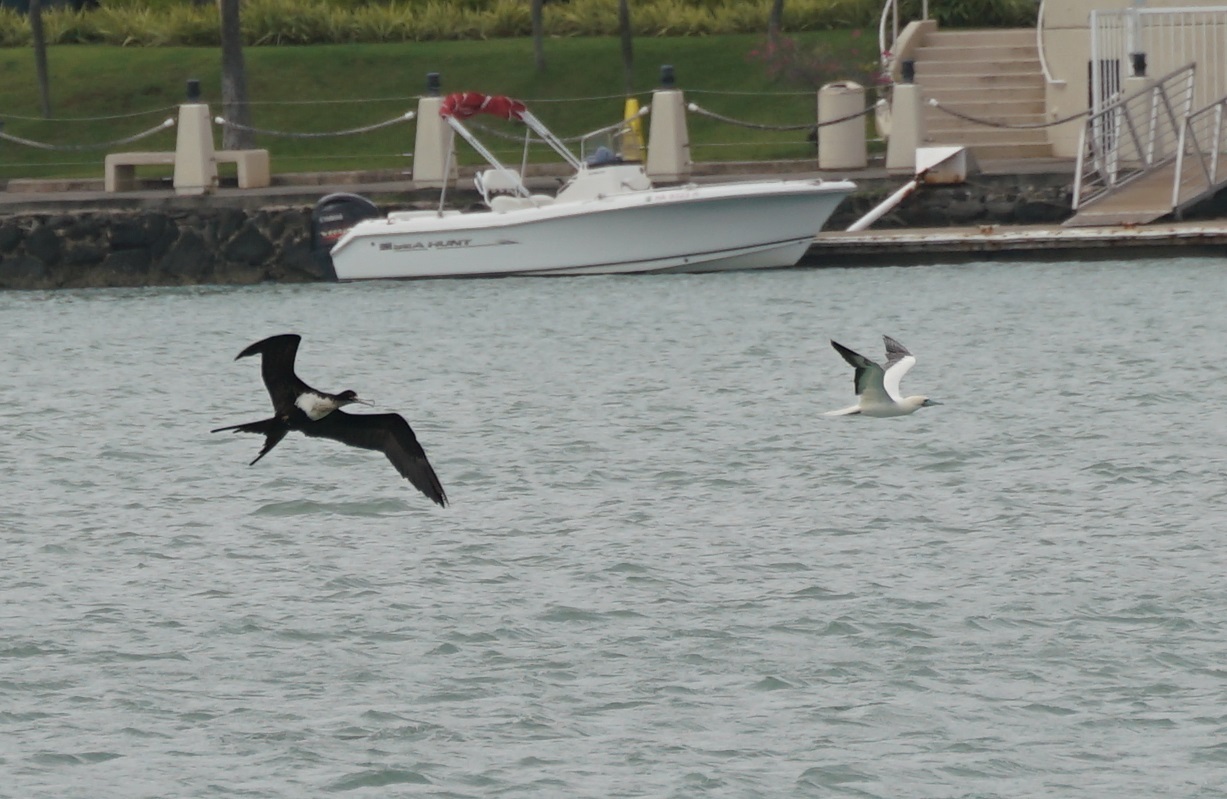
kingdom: Animalia
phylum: Chordata
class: Aves
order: Suliformes
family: Fregatidae
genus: Fregata
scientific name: Fregata minor
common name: Great frigatebird
